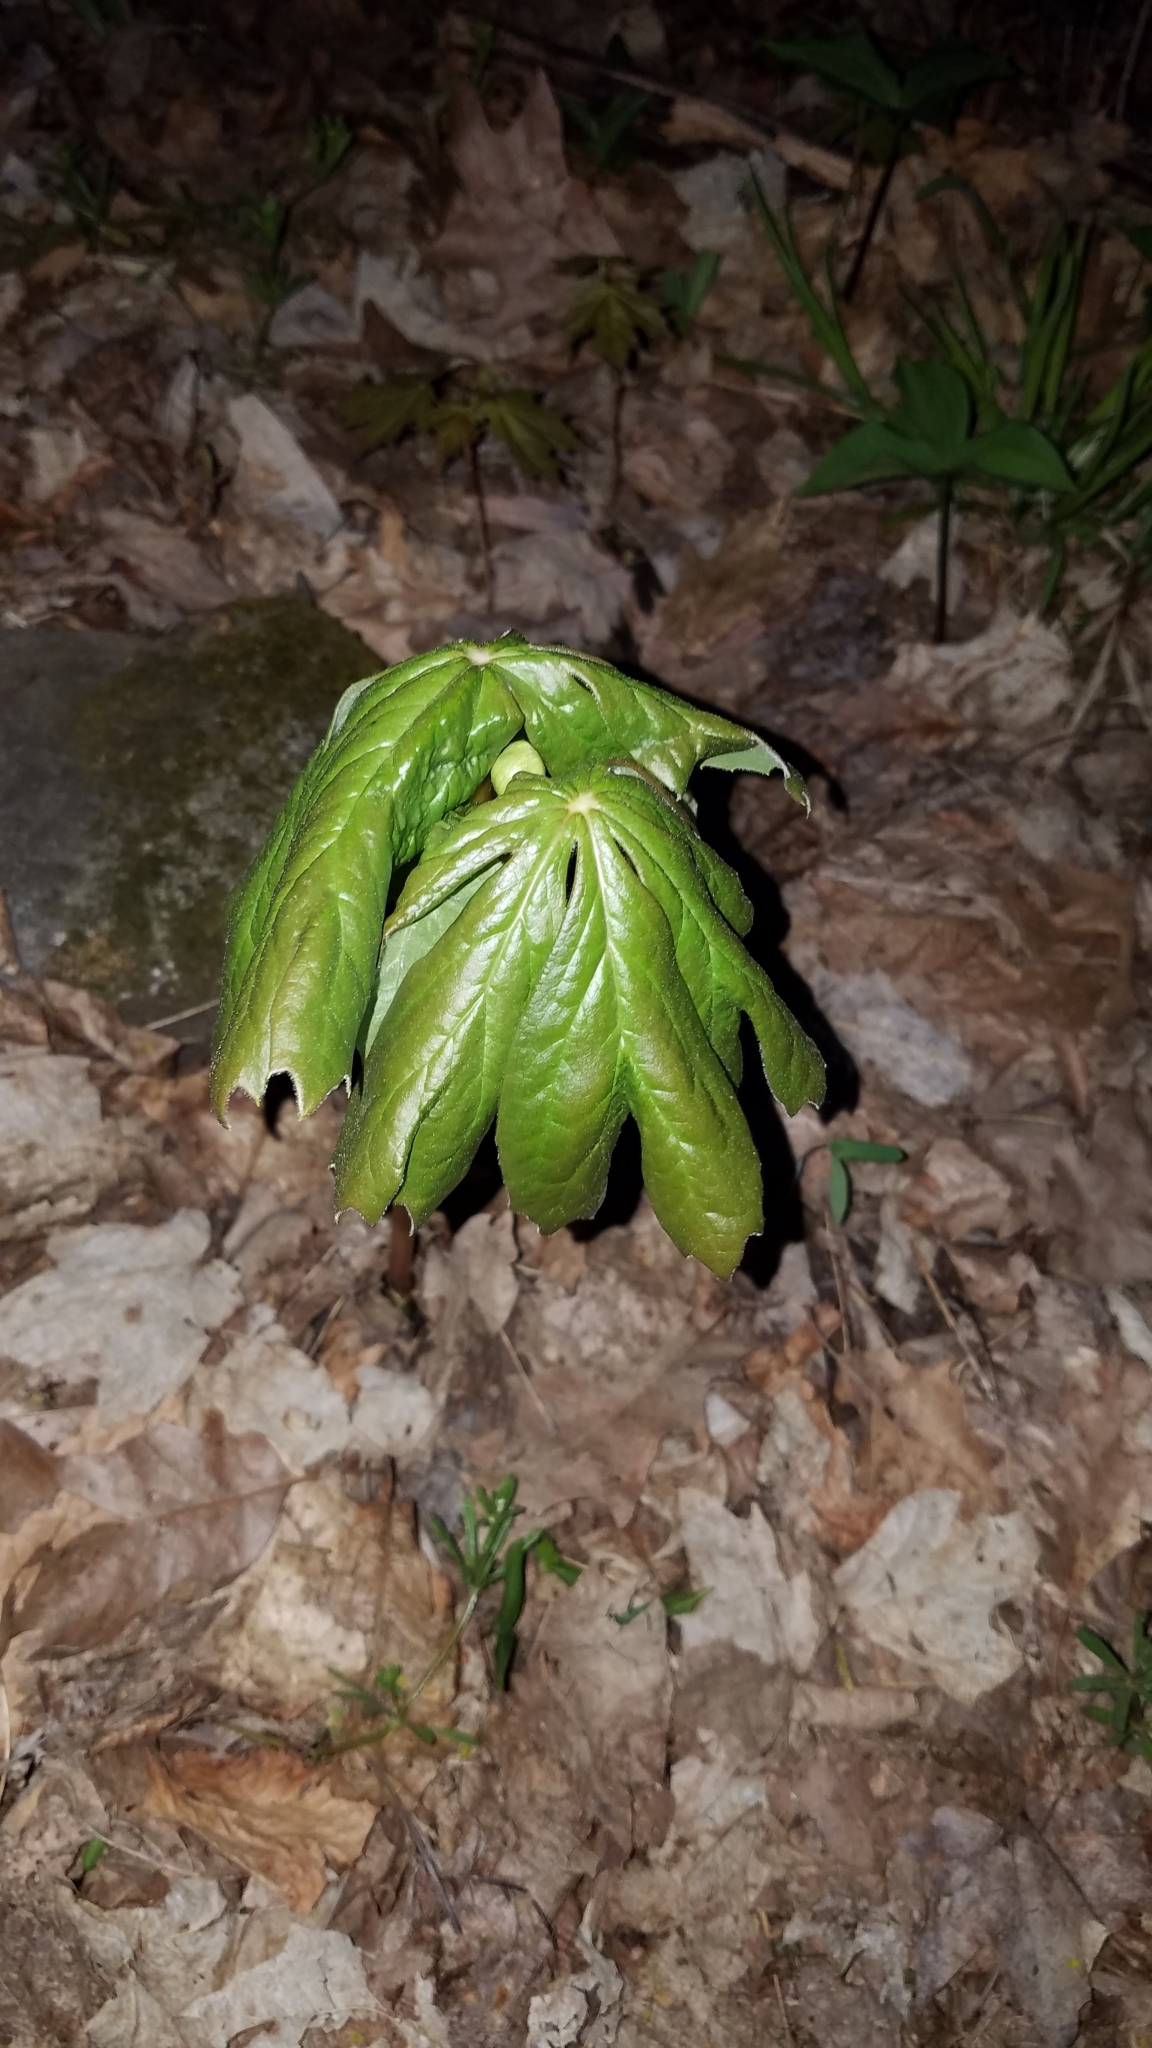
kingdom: Plantae
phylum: Tracheophyta
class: Magnoliopsida
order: Ranunculales
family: Berberidaceae
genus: Podophyllum
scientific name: Podophyllum peltatum
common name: Wild mandrake
